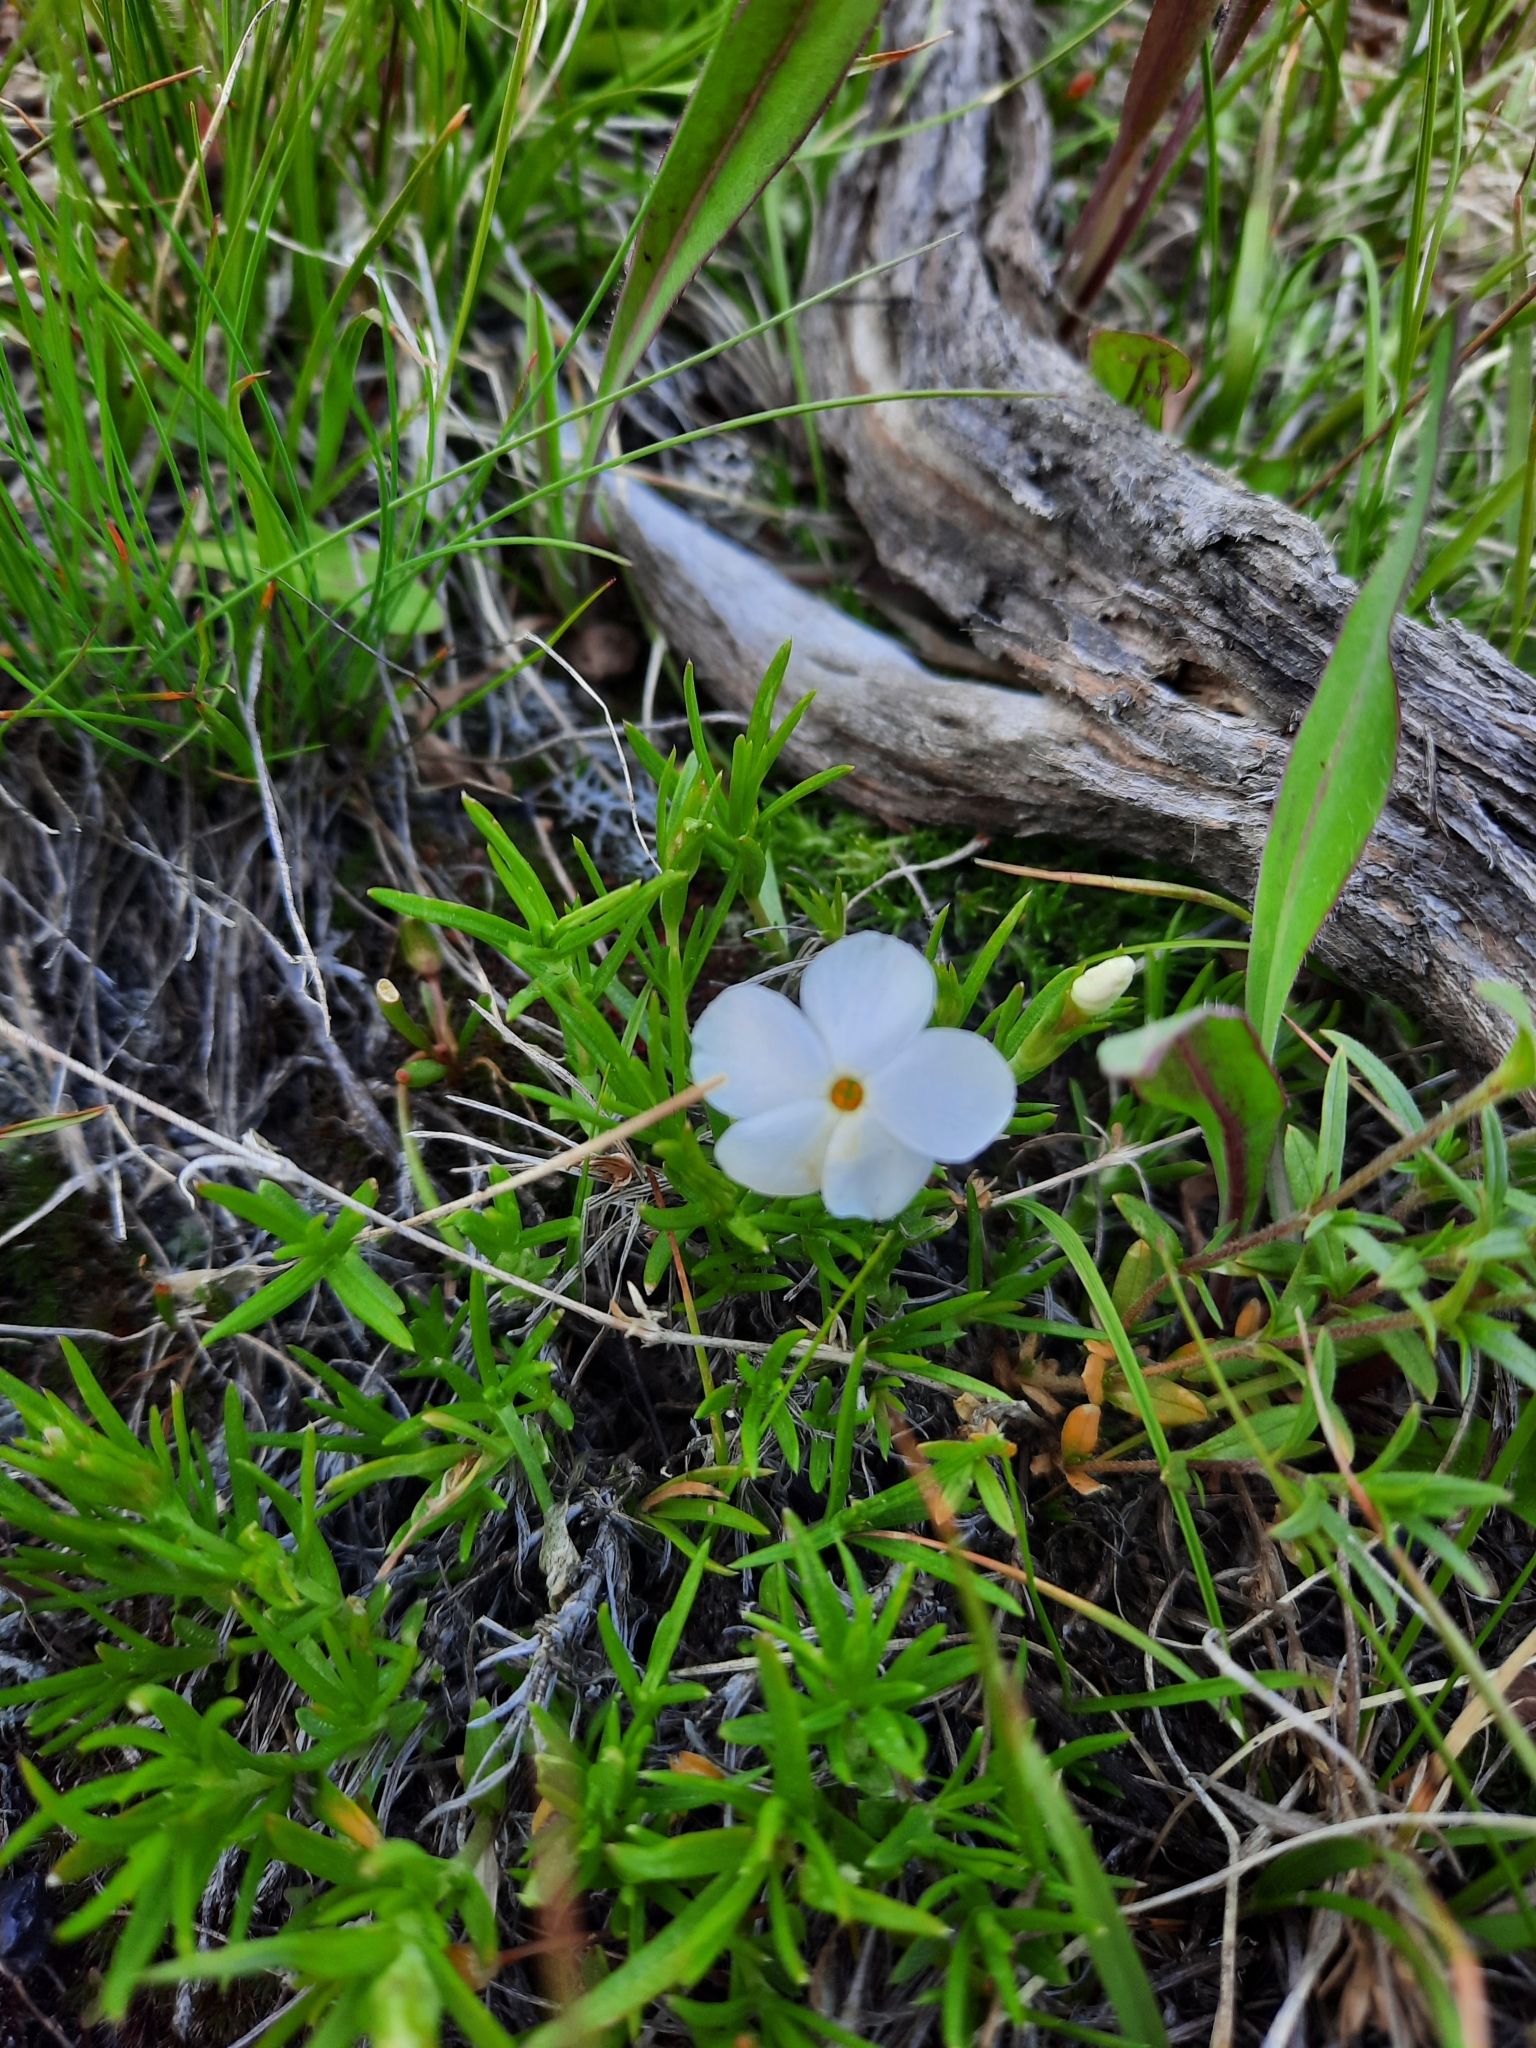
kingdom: Plantae
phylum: Tracheophyta
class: Magnoliopsida
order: Ericales
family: Polemoniaceae
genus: Phlox
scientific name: Phlox multiflora
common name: Rocky mountain phlox
